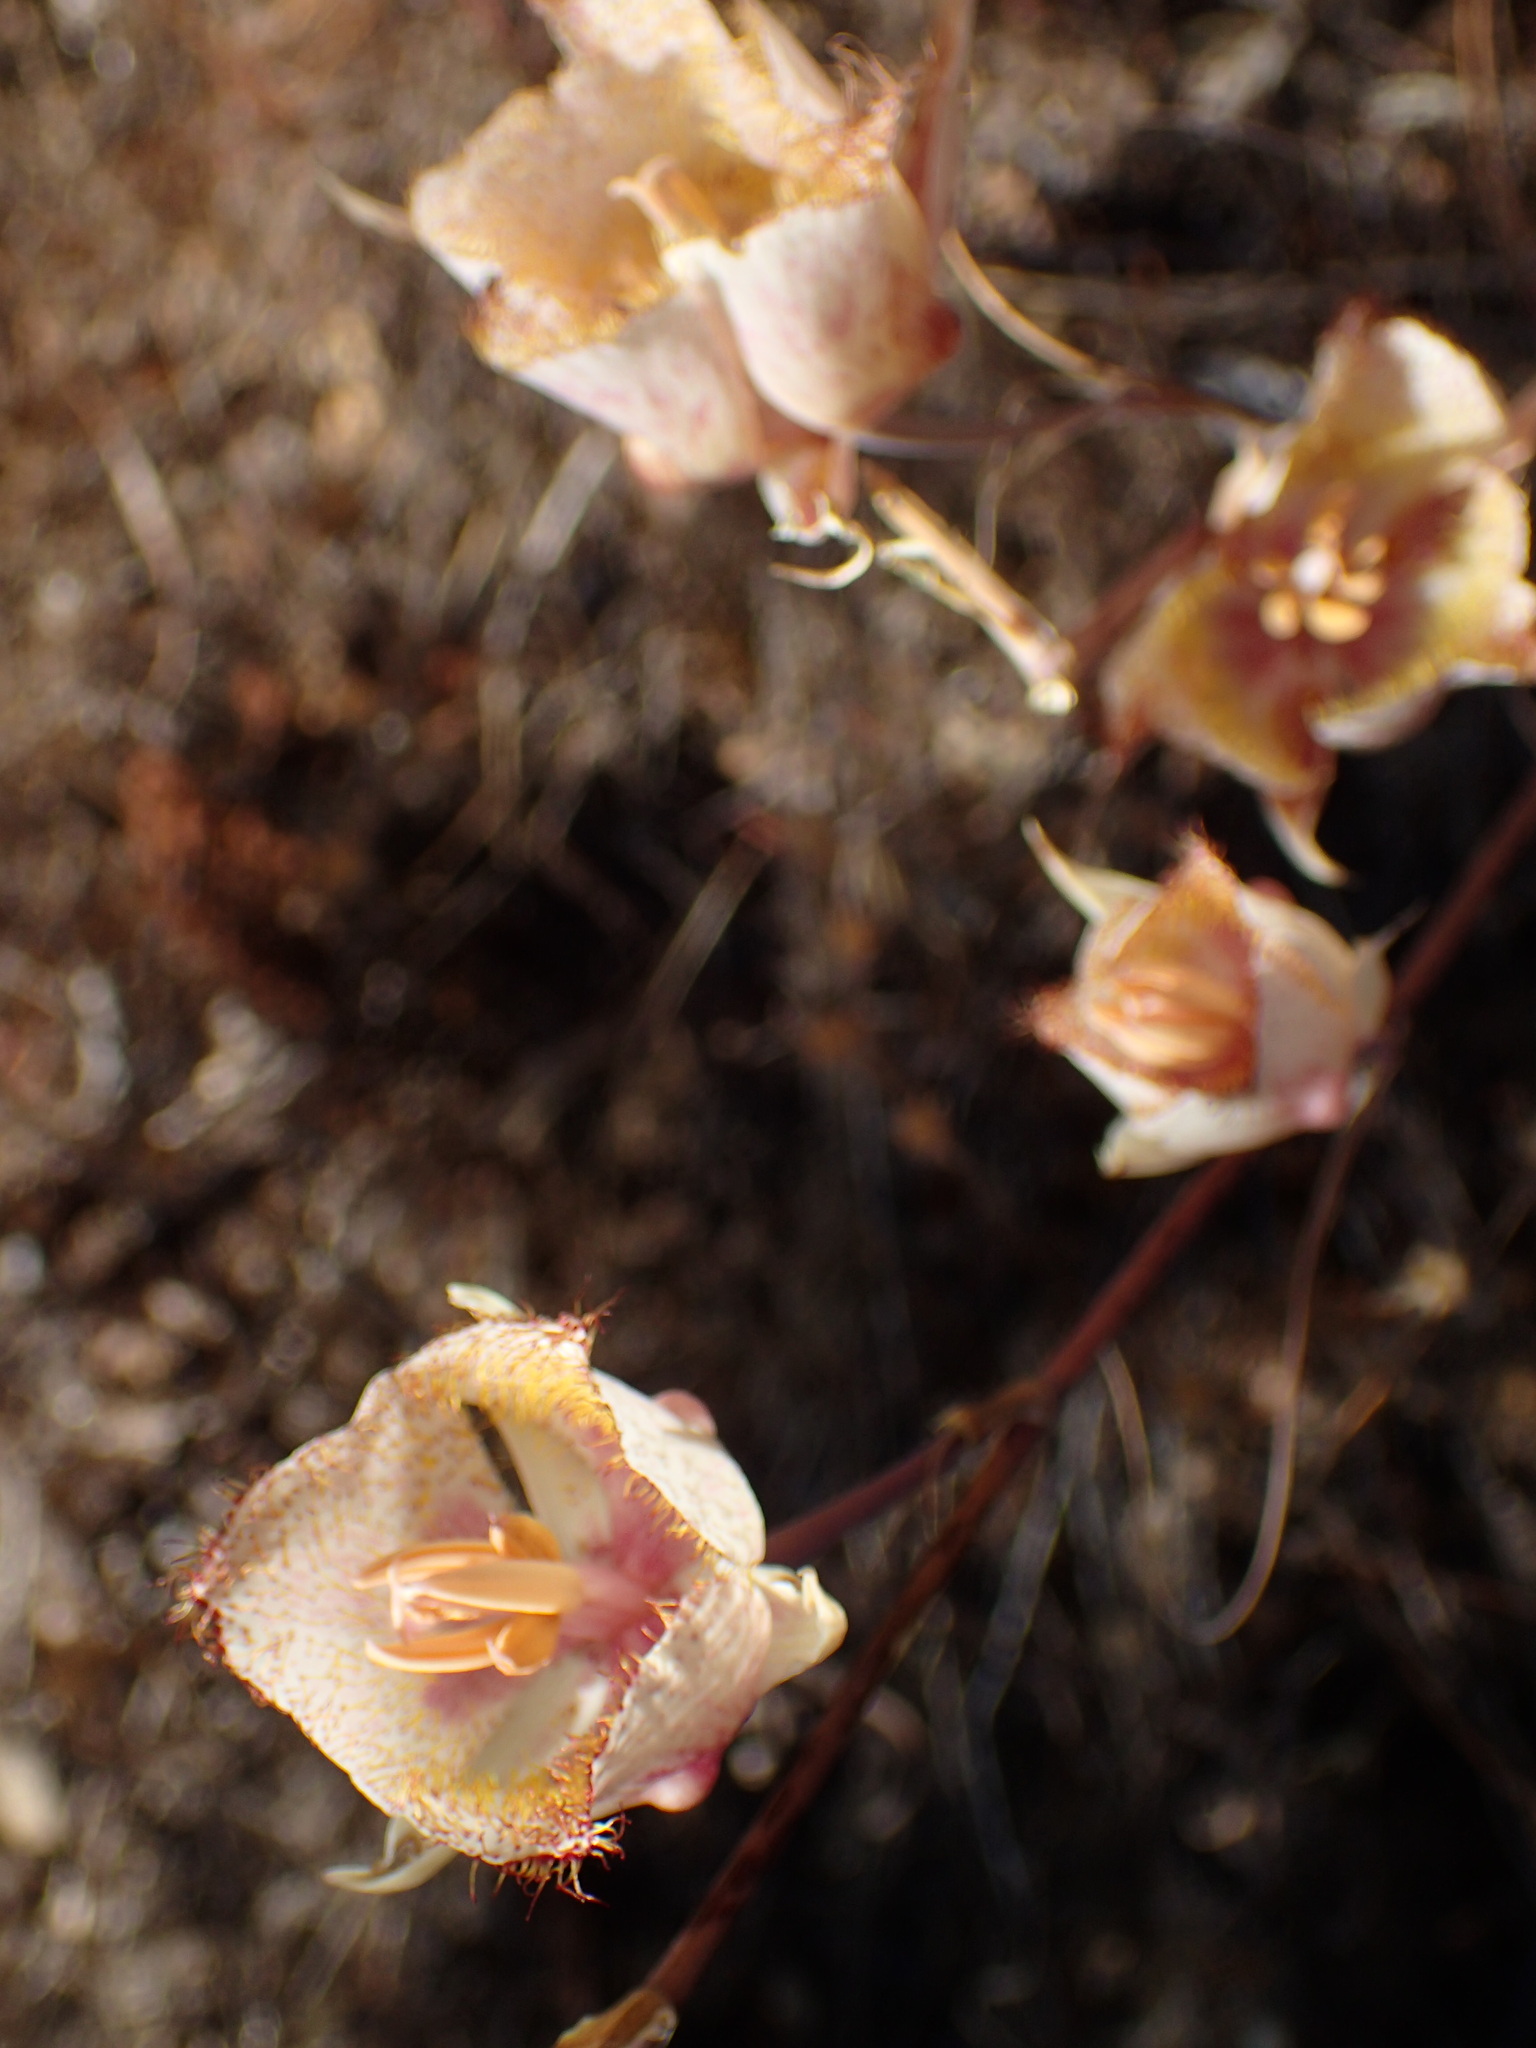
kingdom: Plantae
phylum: Tracheophyta
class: Liliopsida
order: Liliales
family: Liliaceae
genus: Calochortus
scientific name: Calochortus fimbriatus
